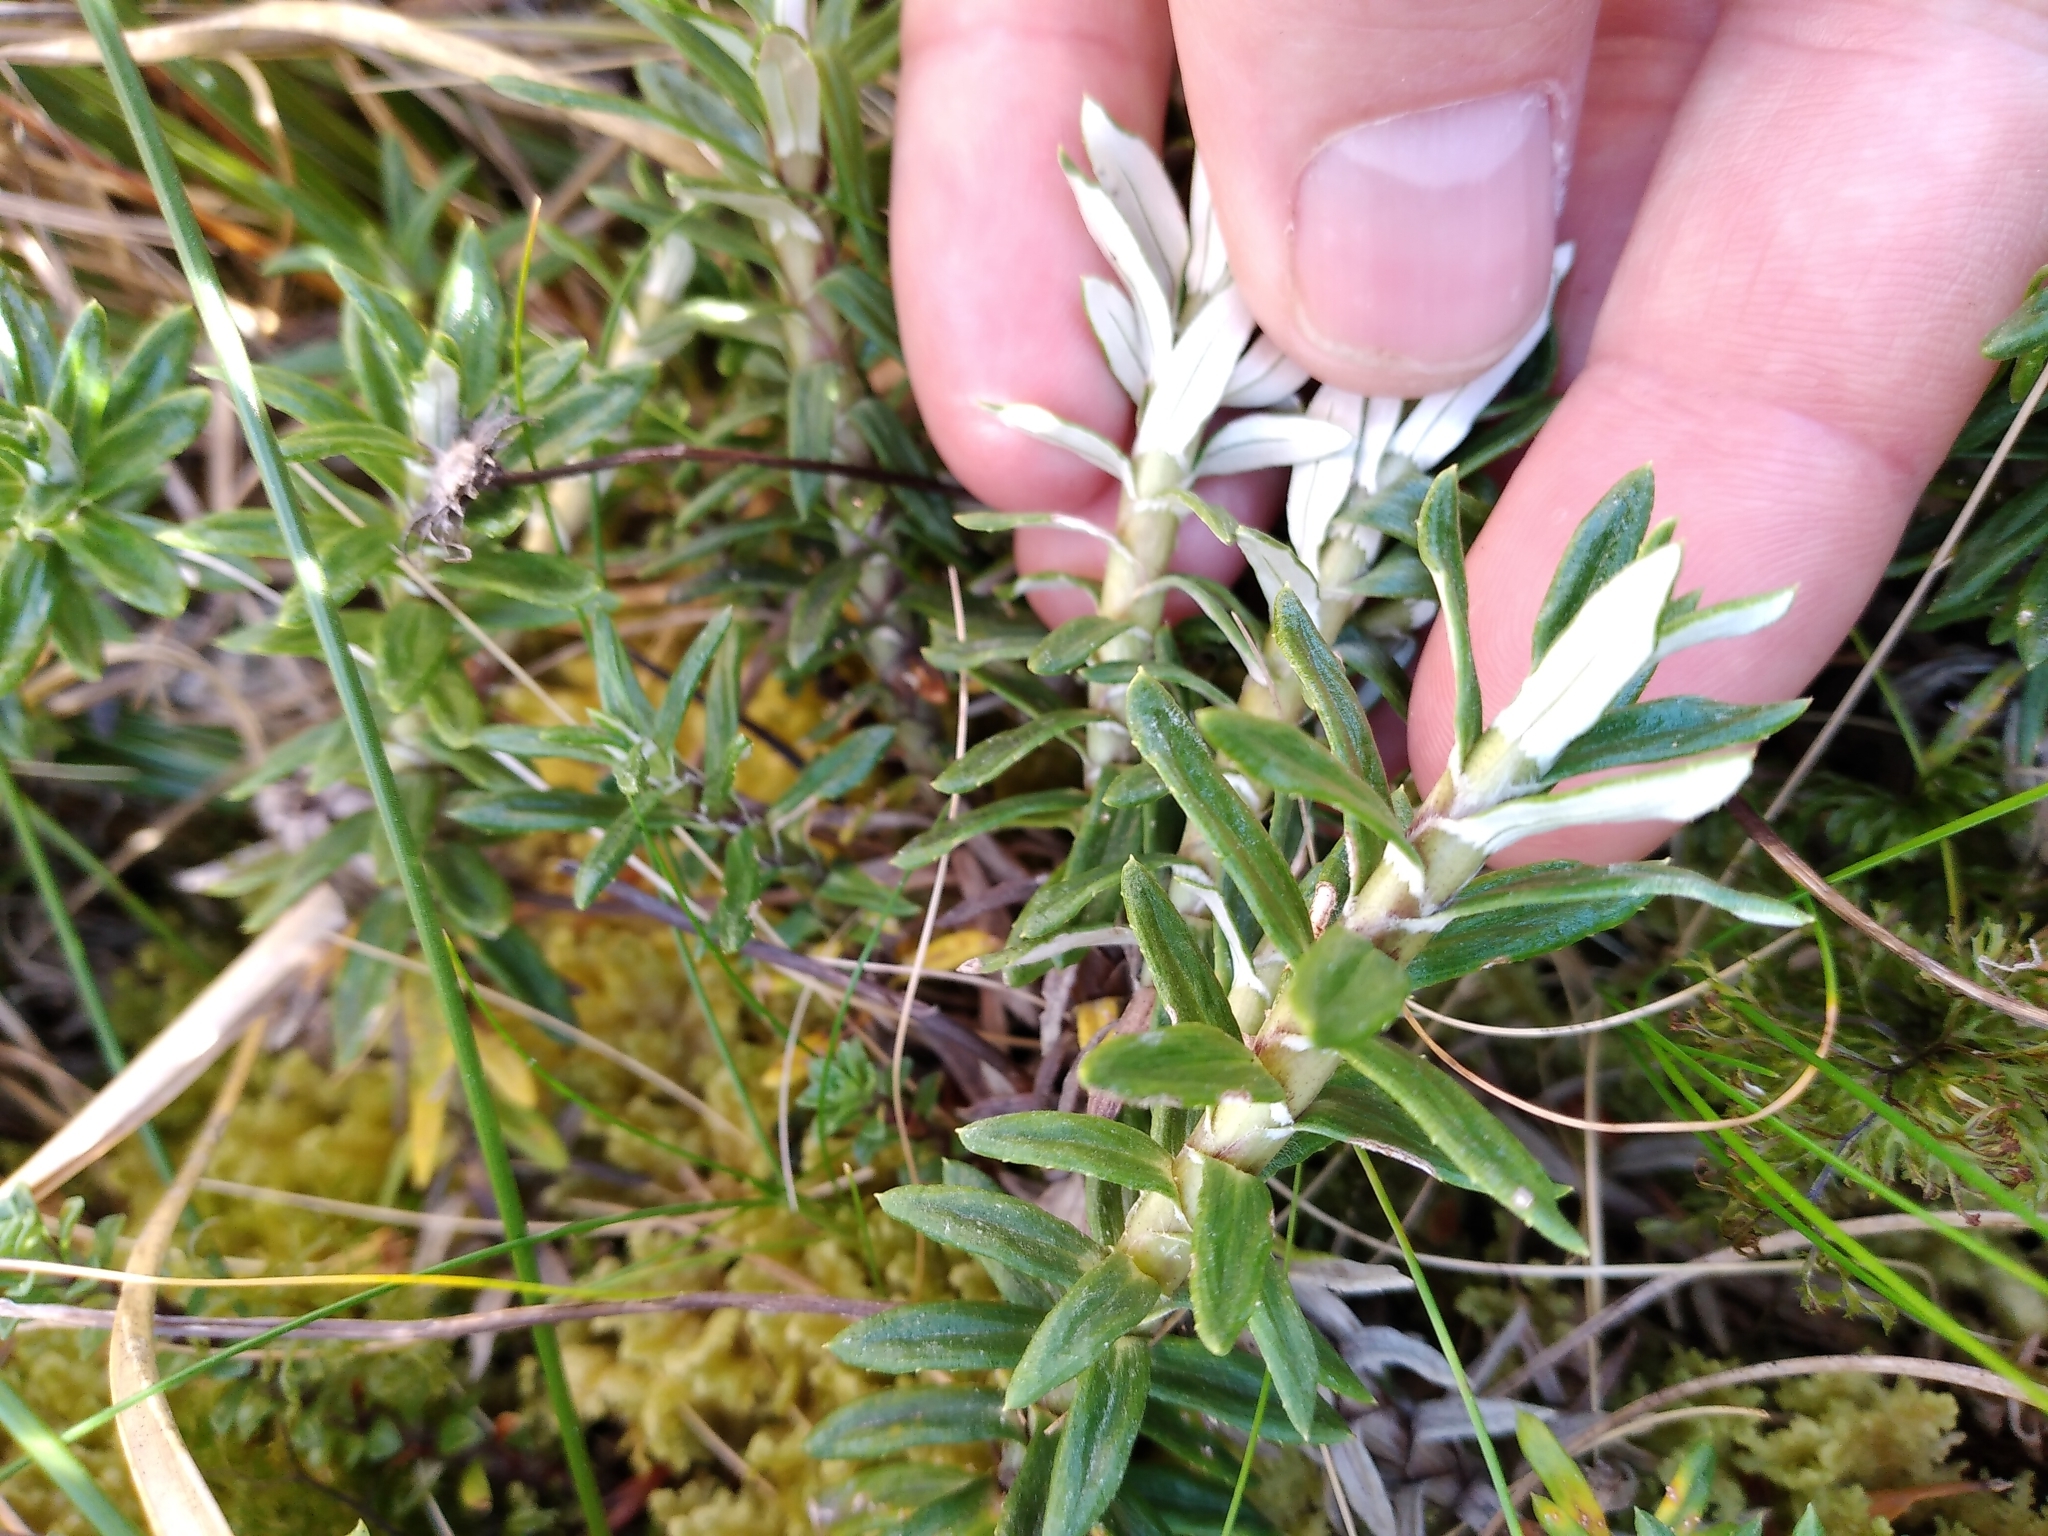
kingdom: Plantae
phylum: Tracheophyta
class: Magnoliopsida
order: Asterales
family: Asteraceae
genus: Celmisia
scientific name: Celmisia walkeri
